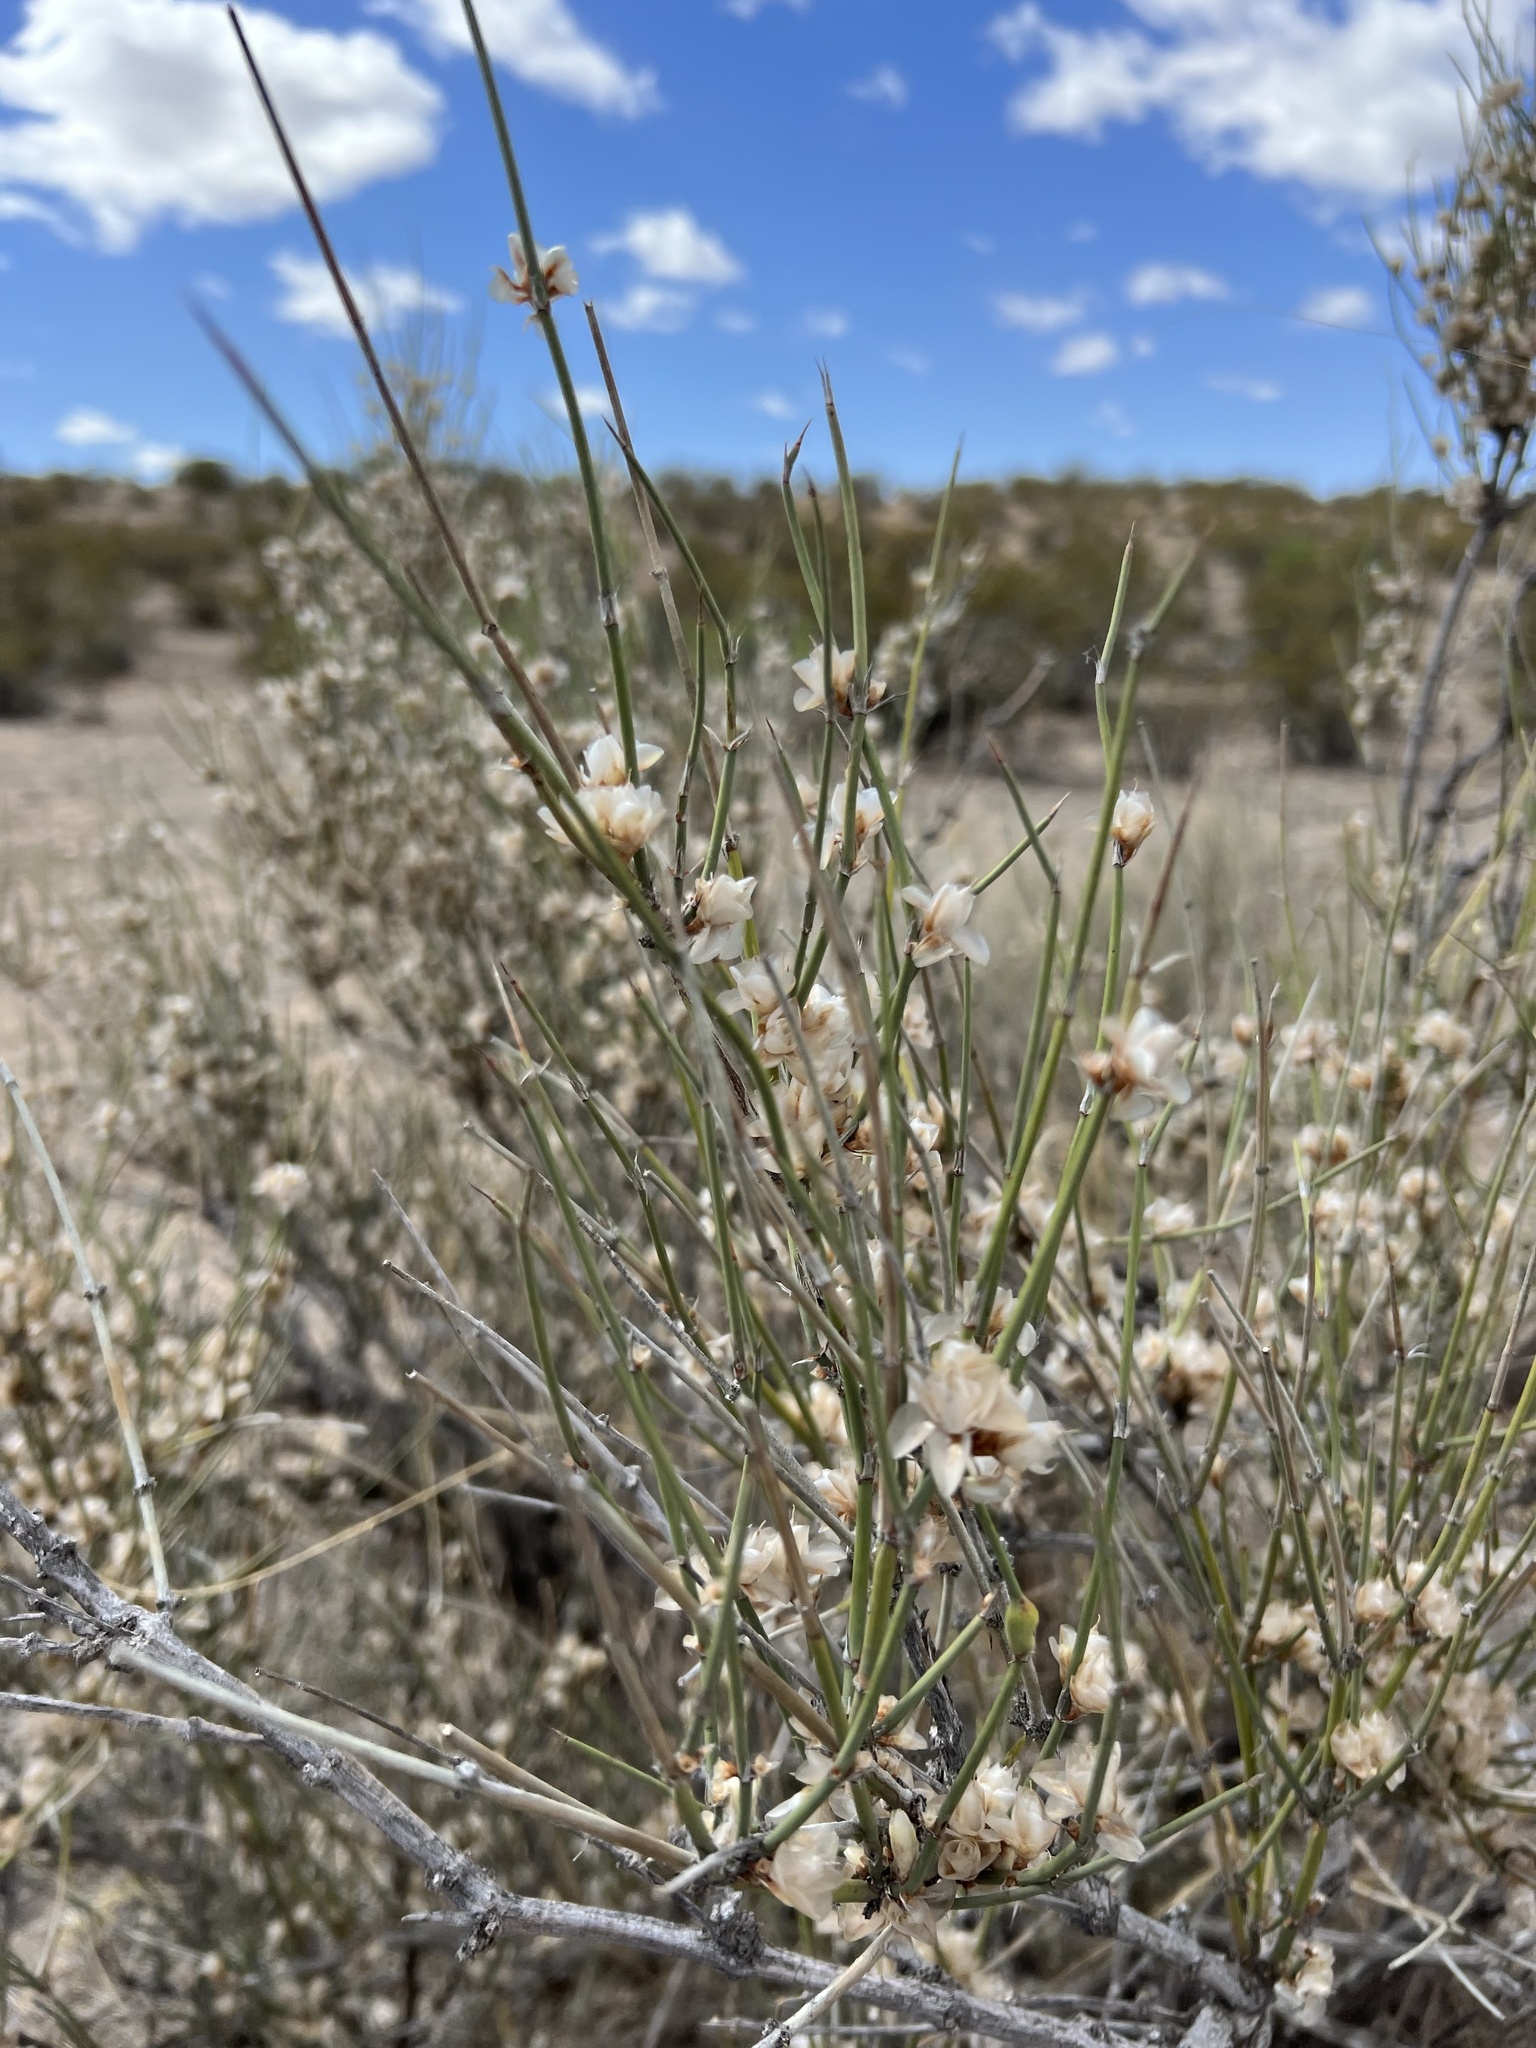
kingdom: Plantae
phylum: Tracheophyta
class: Gnetopsida
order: Ephedrales
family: Ephedraceae
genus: Ephedra
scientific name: Ephedra trifurca
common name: Mexican-tea
